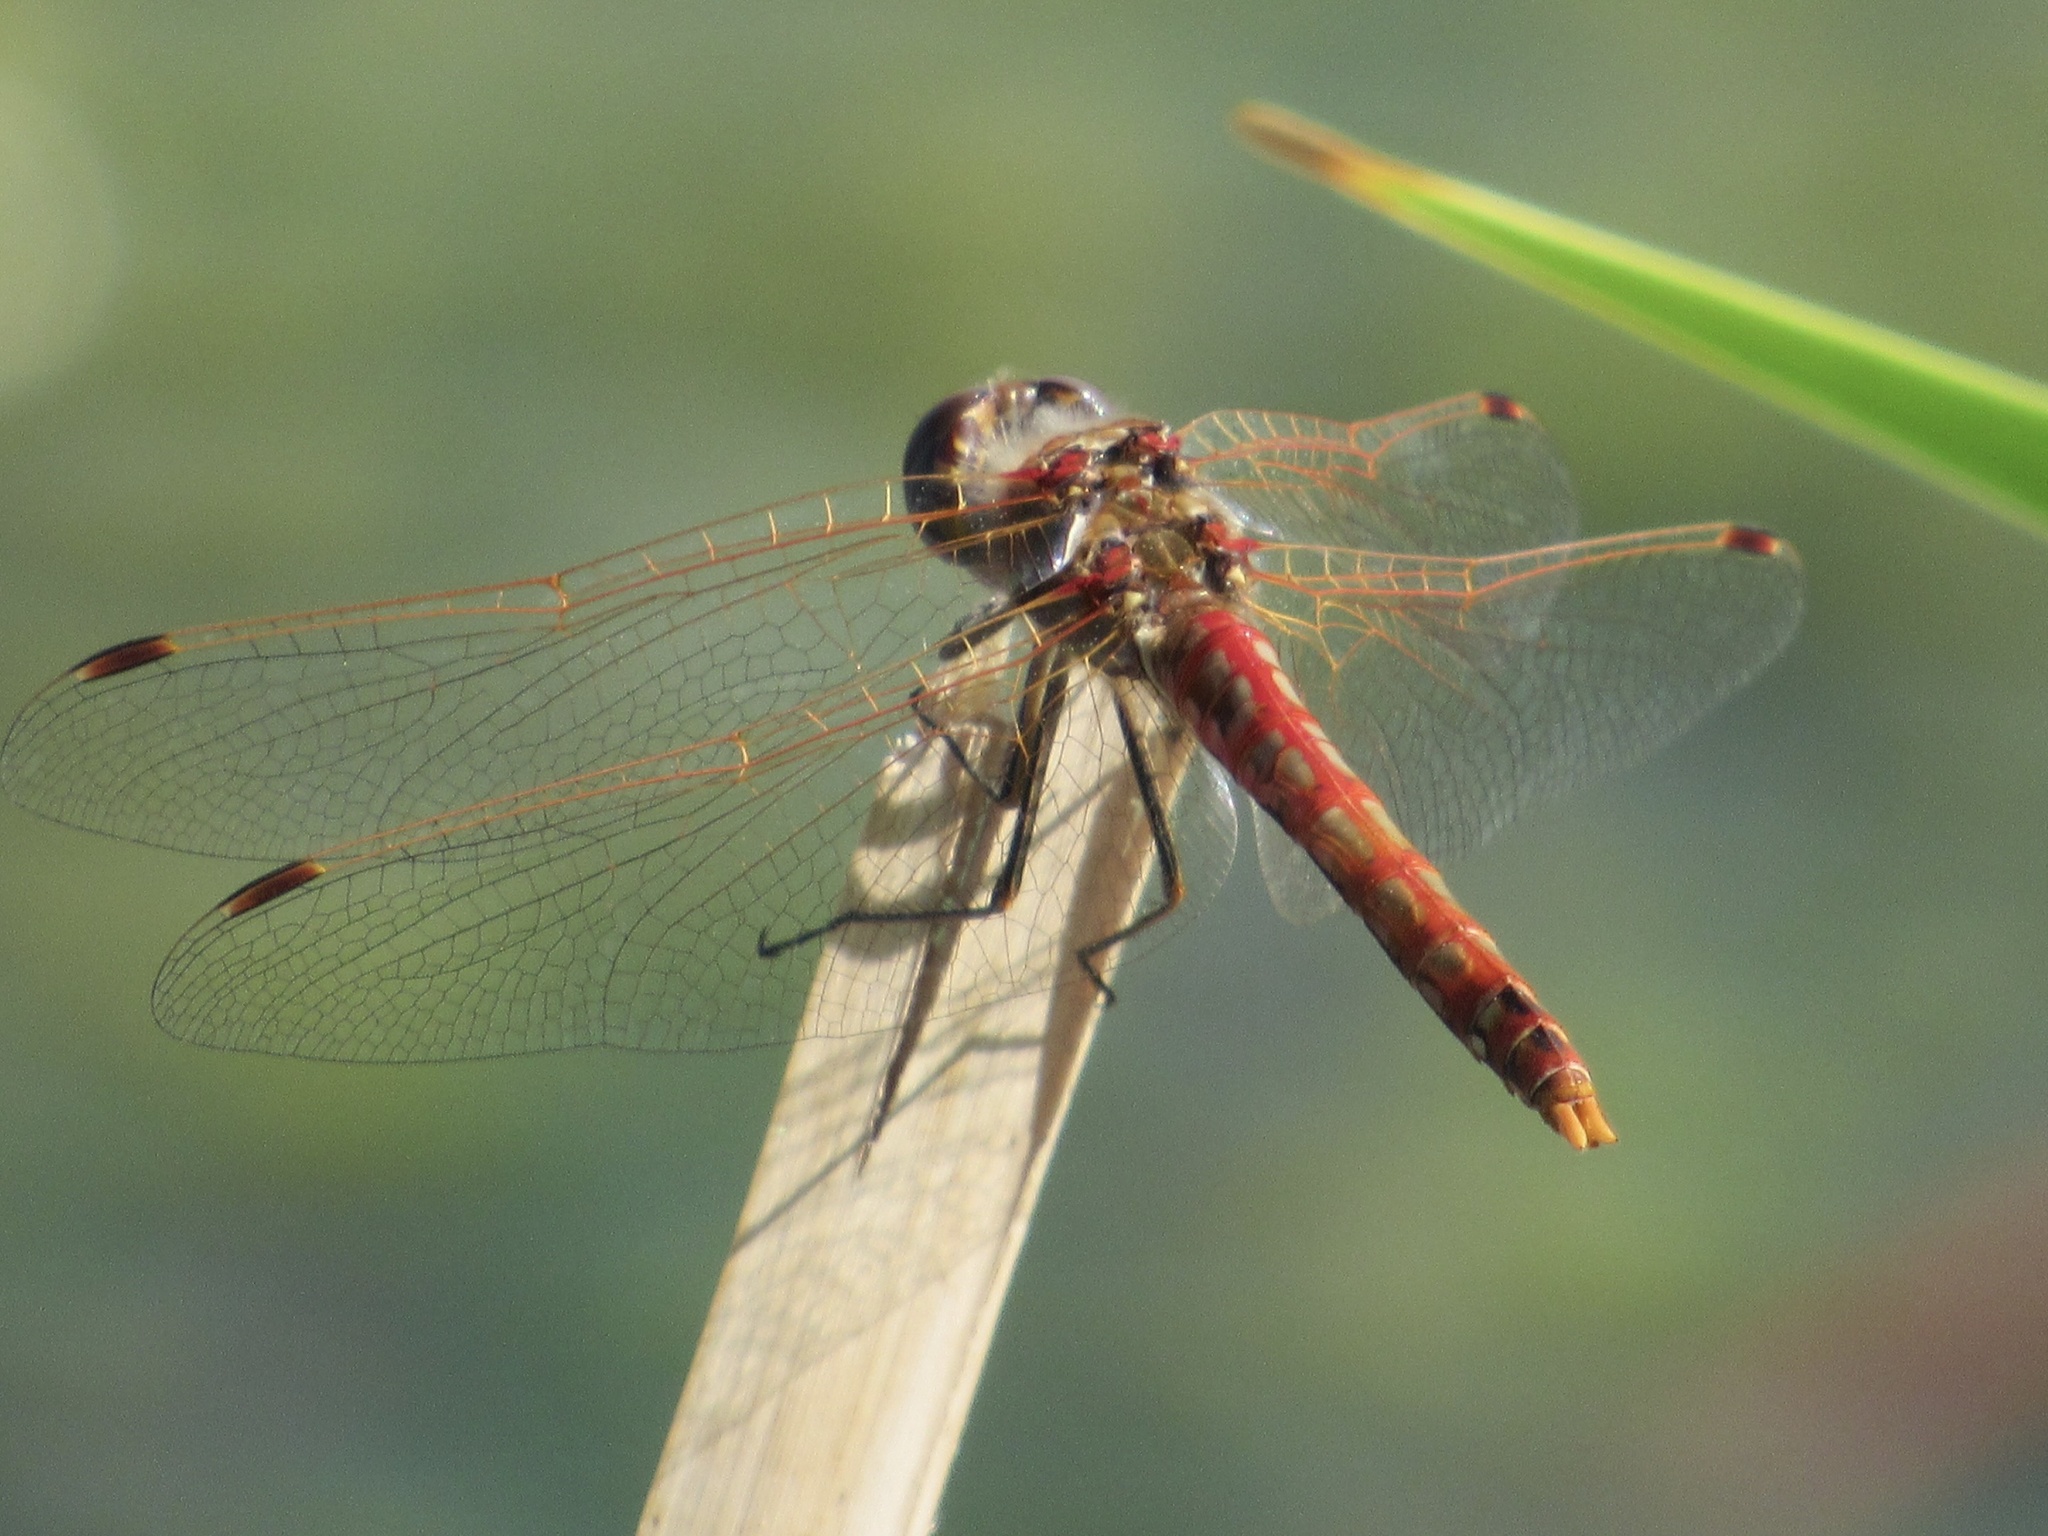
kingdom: Animalia
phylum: Arthropoda
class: Insecta
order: Odonata
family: Libellulidae
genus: Sympetrum
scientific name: Sympetrum corruptum
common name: Variegated meadowhawk
